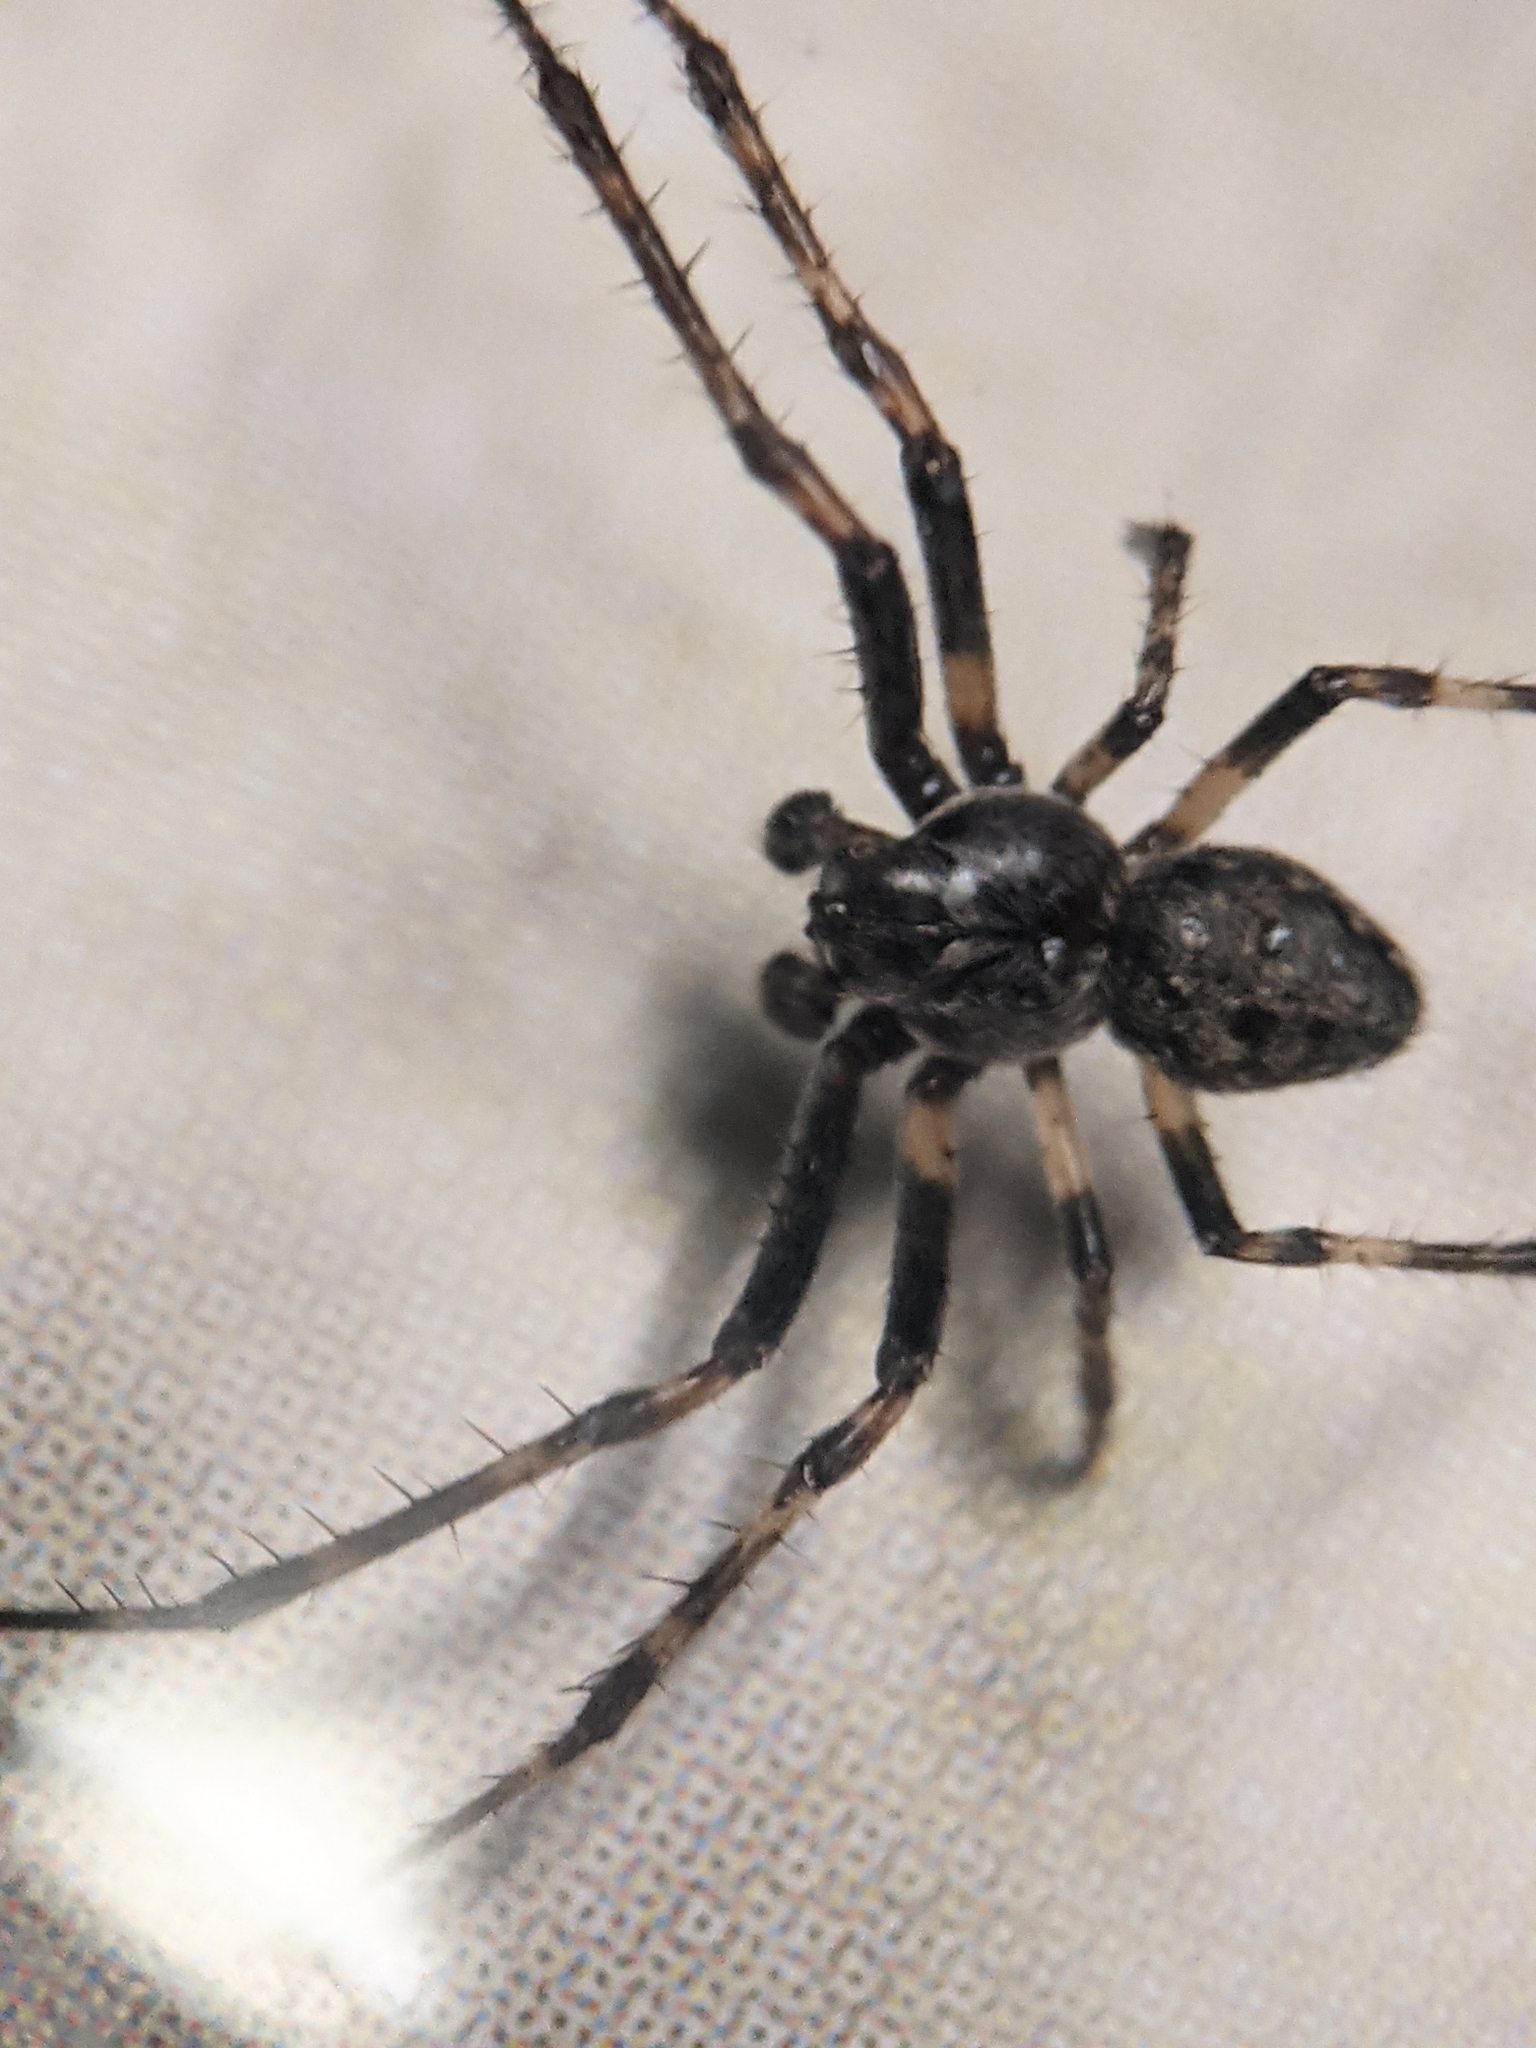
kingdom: Animalia
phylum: Arthropoda
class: Arachnida
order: Araneae
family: Araneidae
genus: Nuctenea
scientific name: Nuctenea umbratica
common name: Toad spider
